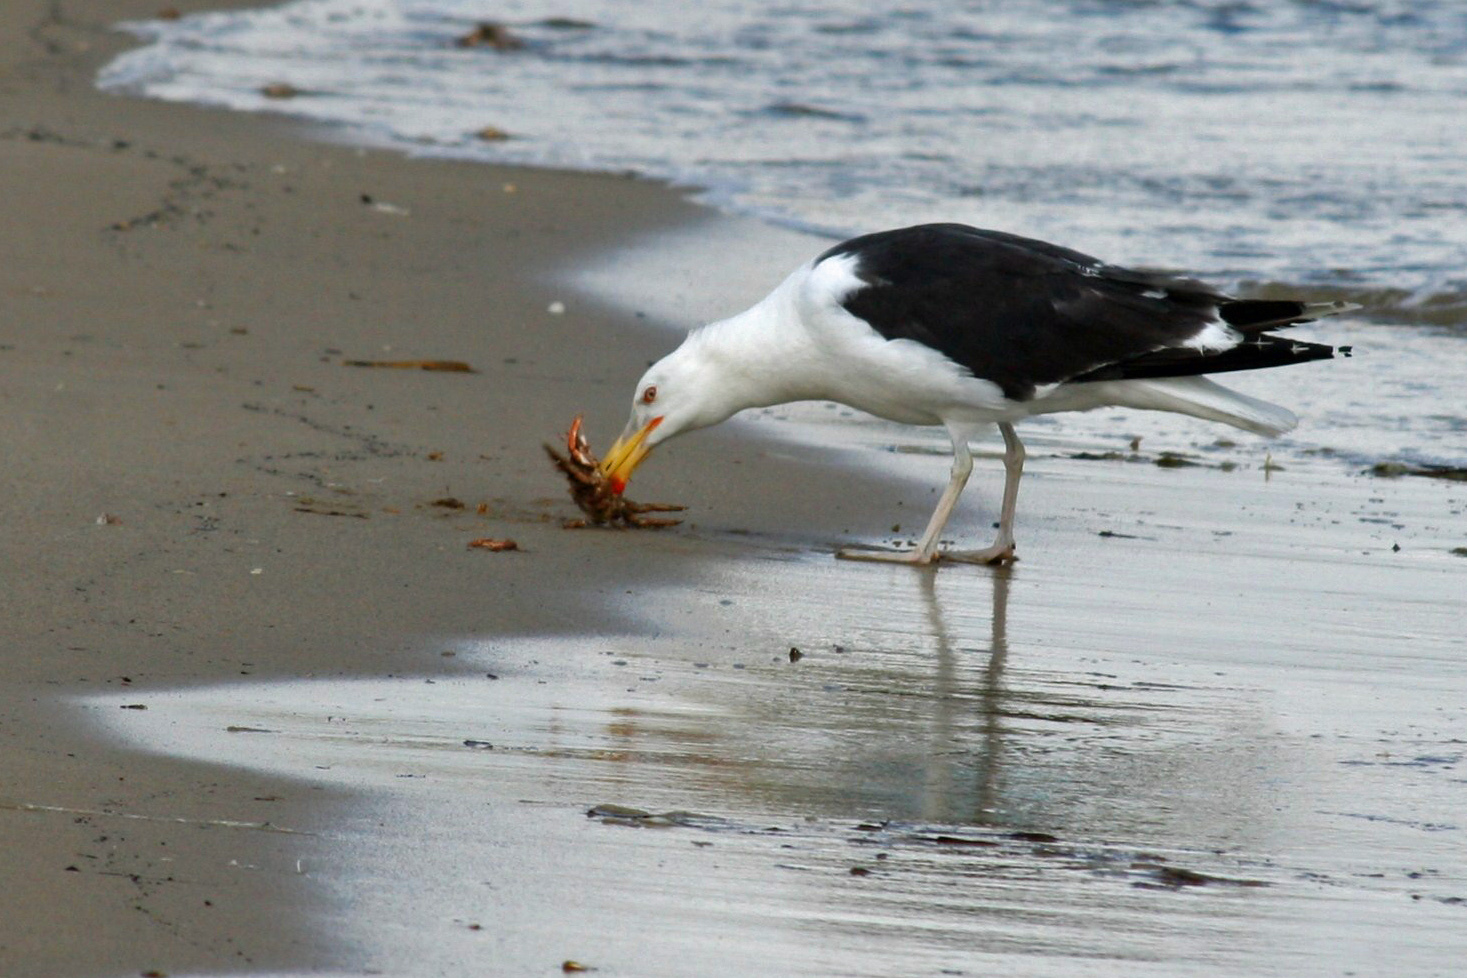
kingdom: Animalia
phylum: Chordata
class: Aves
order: Charadriiformes
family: Laridae
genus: Larus
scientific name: Larus marinus
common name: Great black-backed gull
